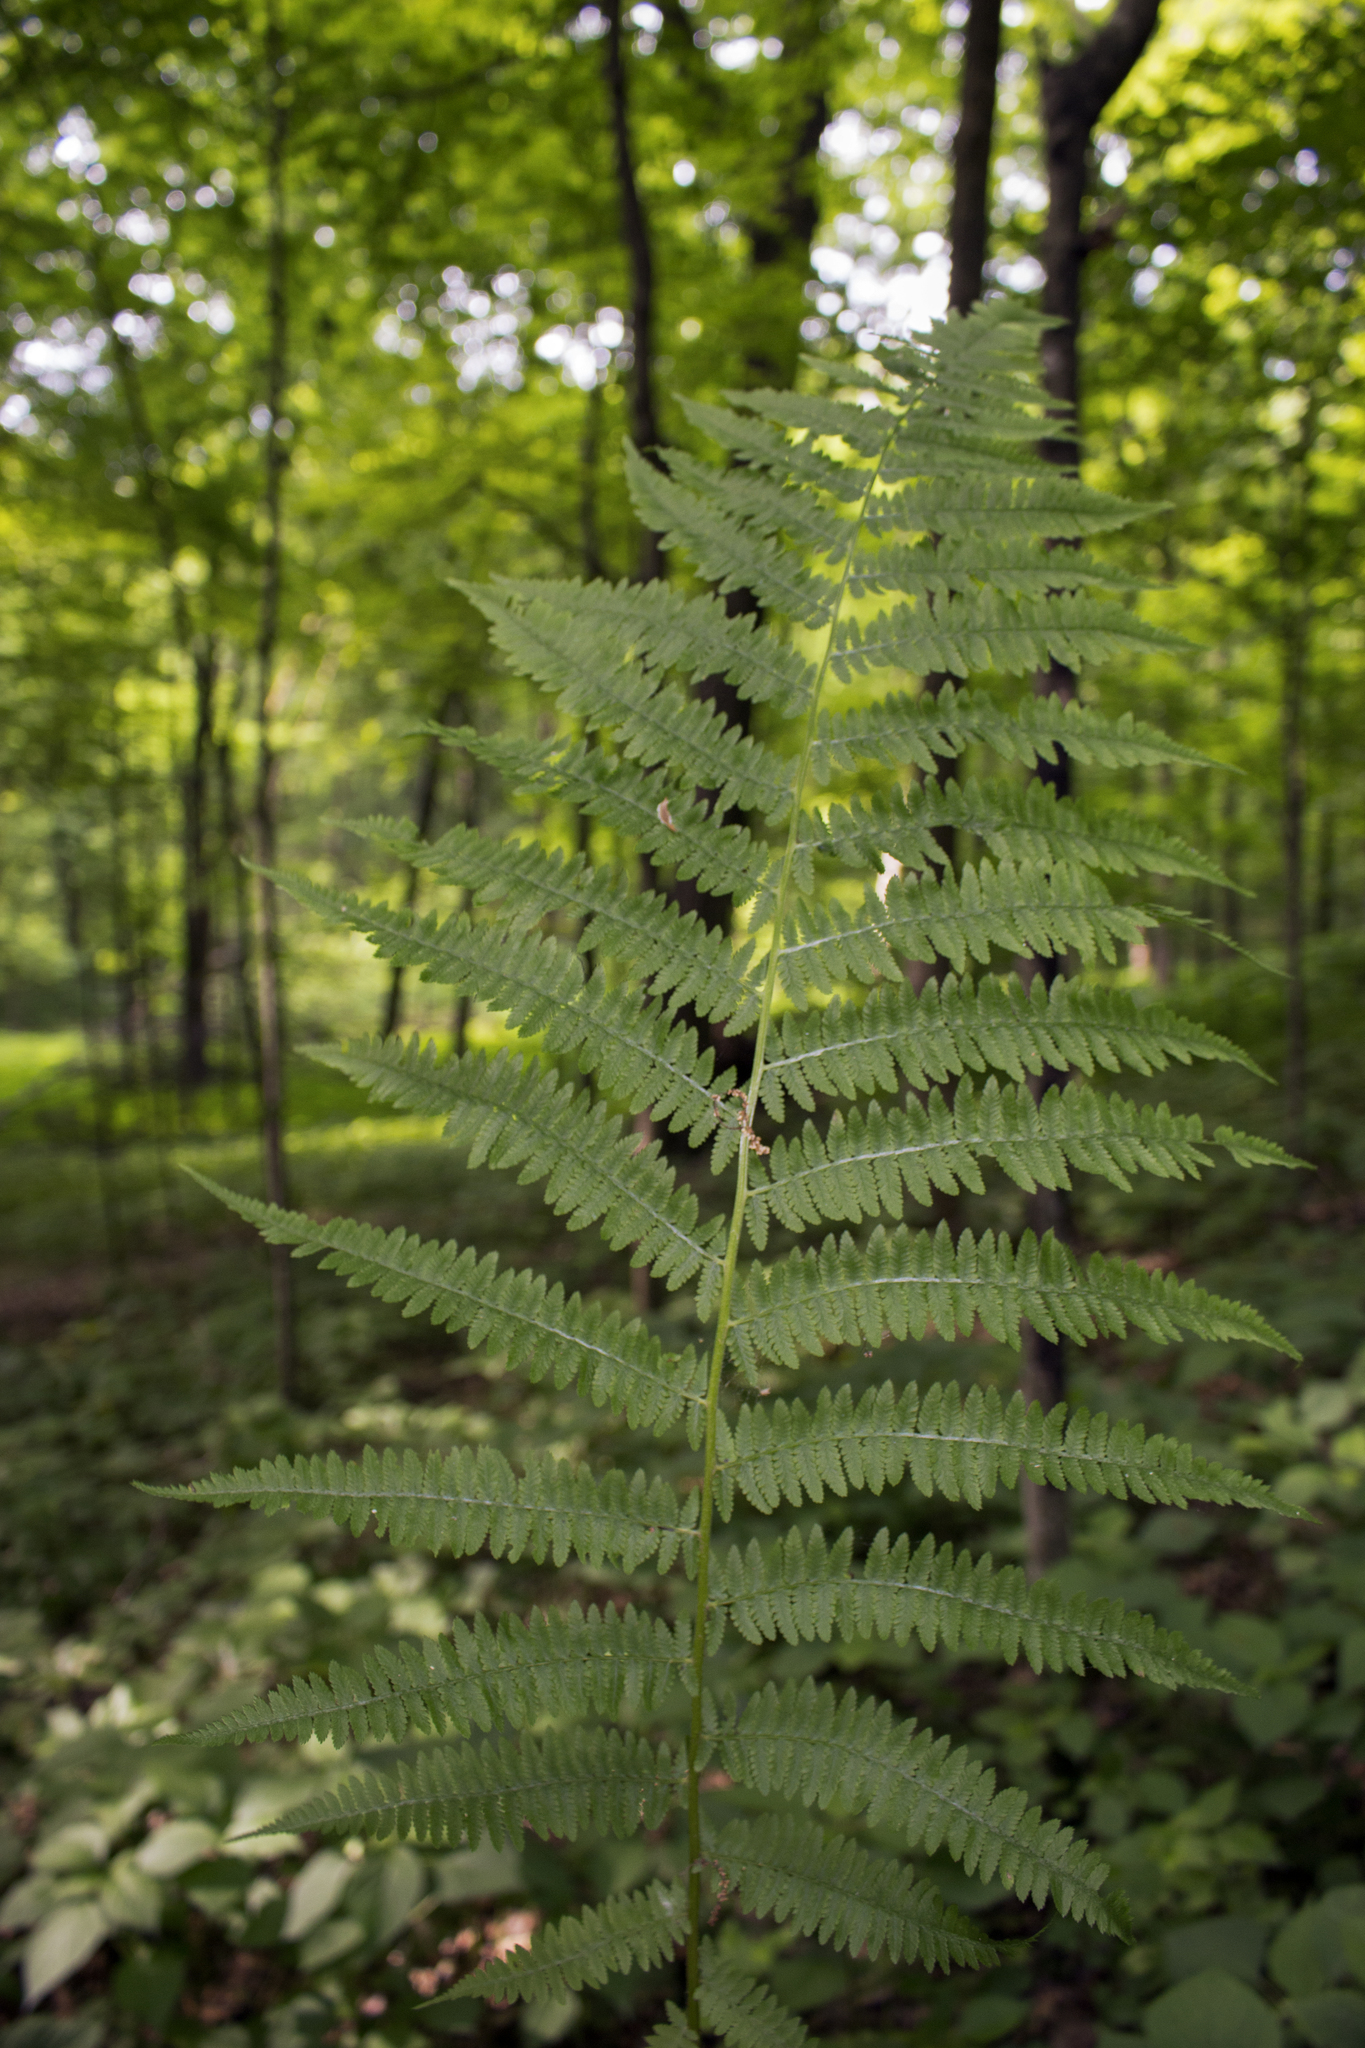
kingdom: Plantae
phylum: Tracheophyta
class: Polypodiopsida
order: Polypodiales
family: Athyriaceae
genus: Athyrium
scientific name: Athyrium angustum
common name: Northern lady fern
